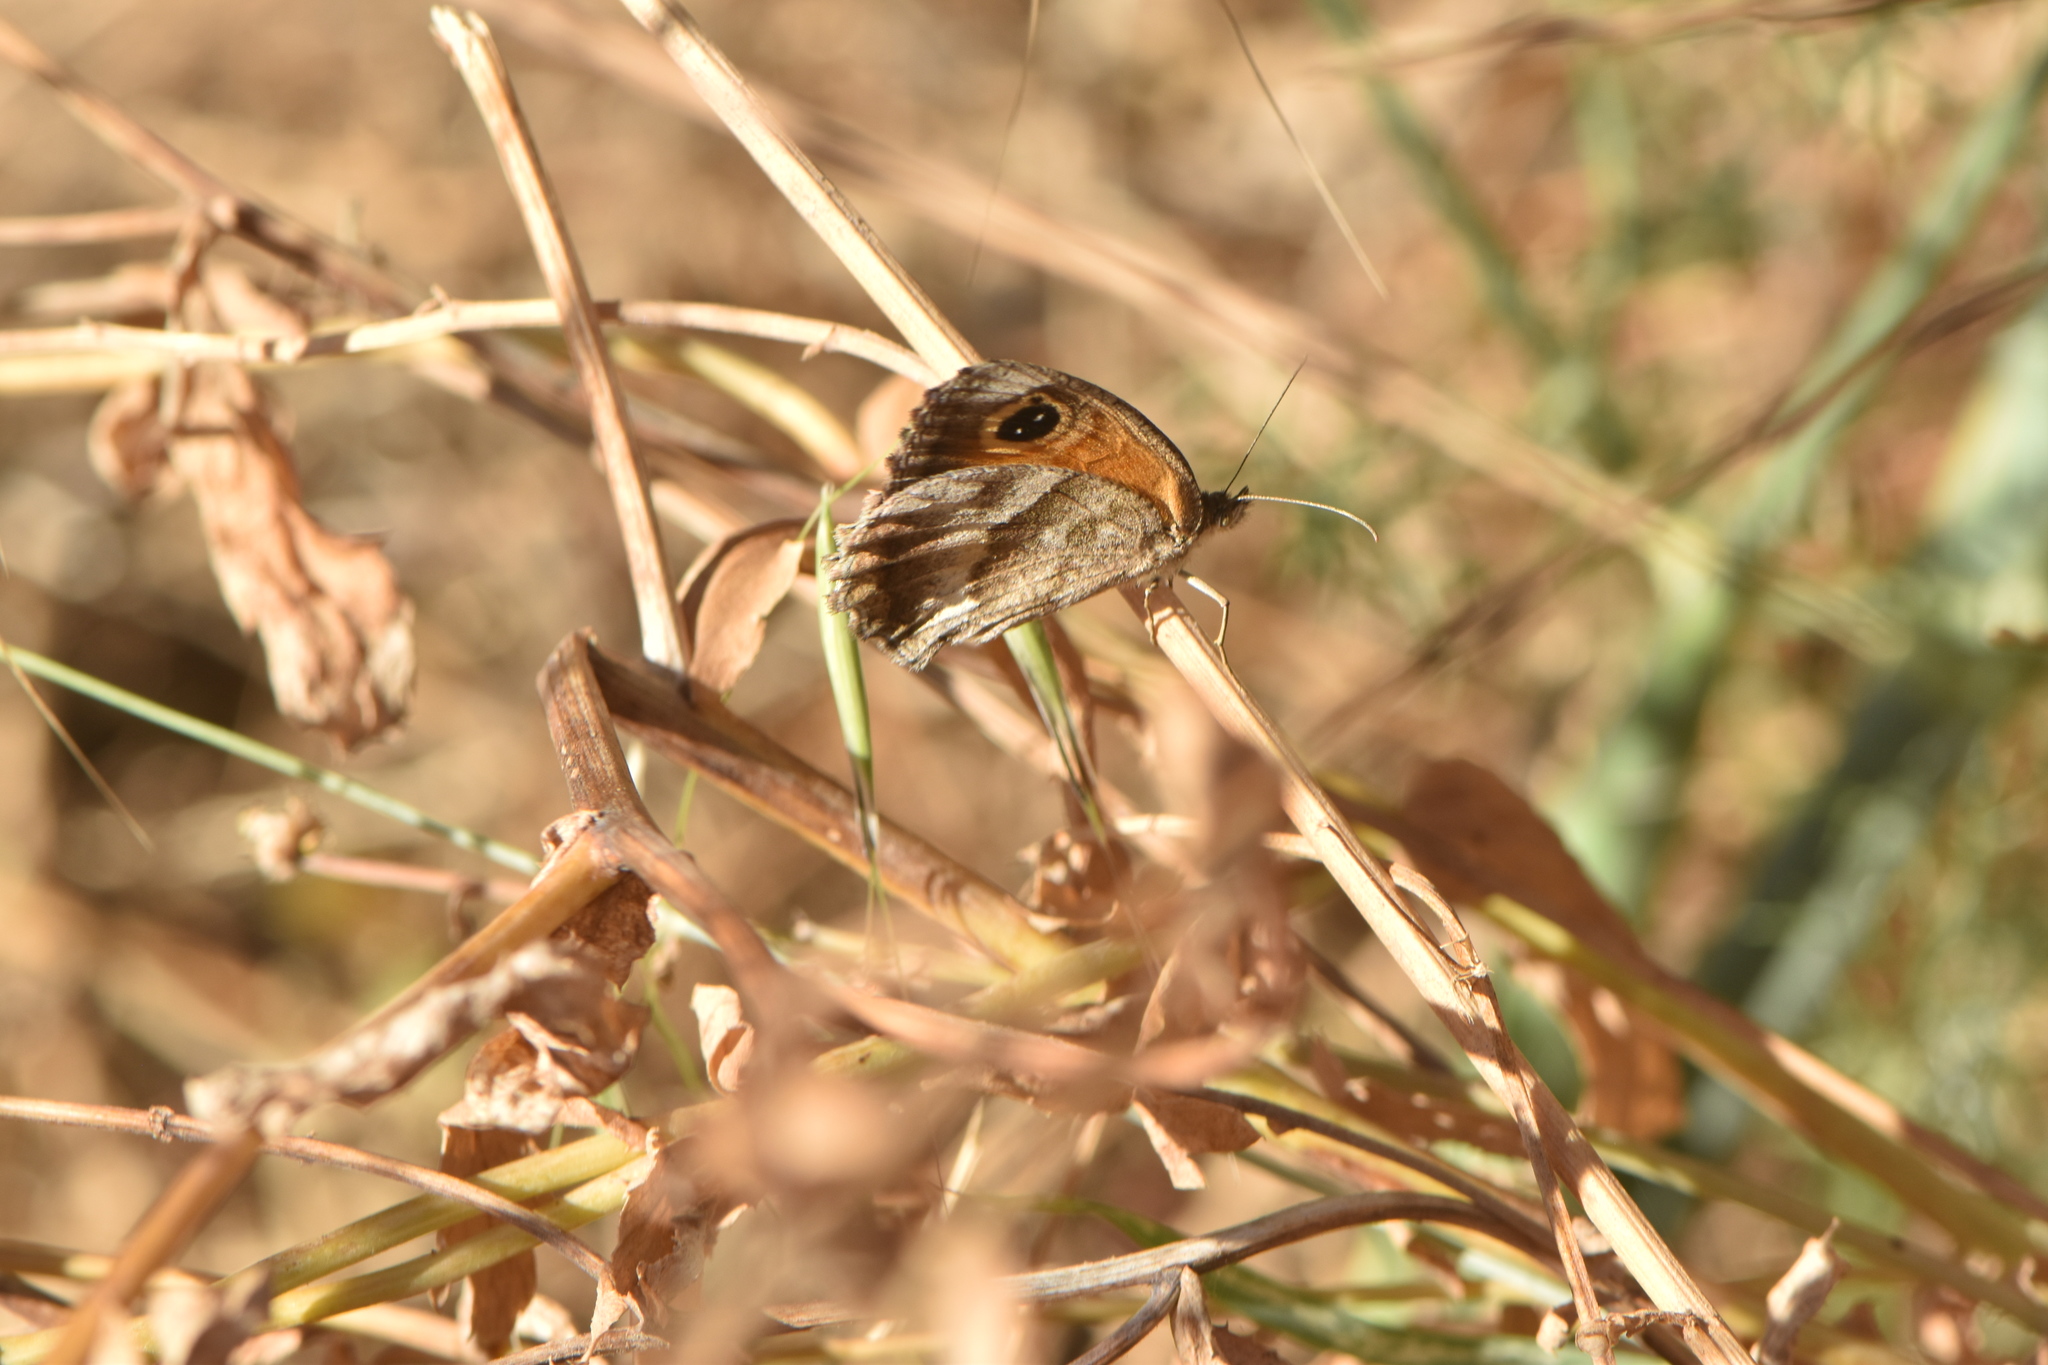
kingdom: Animalia
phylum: Arthropoda
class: Insecta
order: Lepidoptera
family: Nymphalidae
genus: Pyronia
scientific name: Pyronia cecilia
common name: Southern gatekeeper
